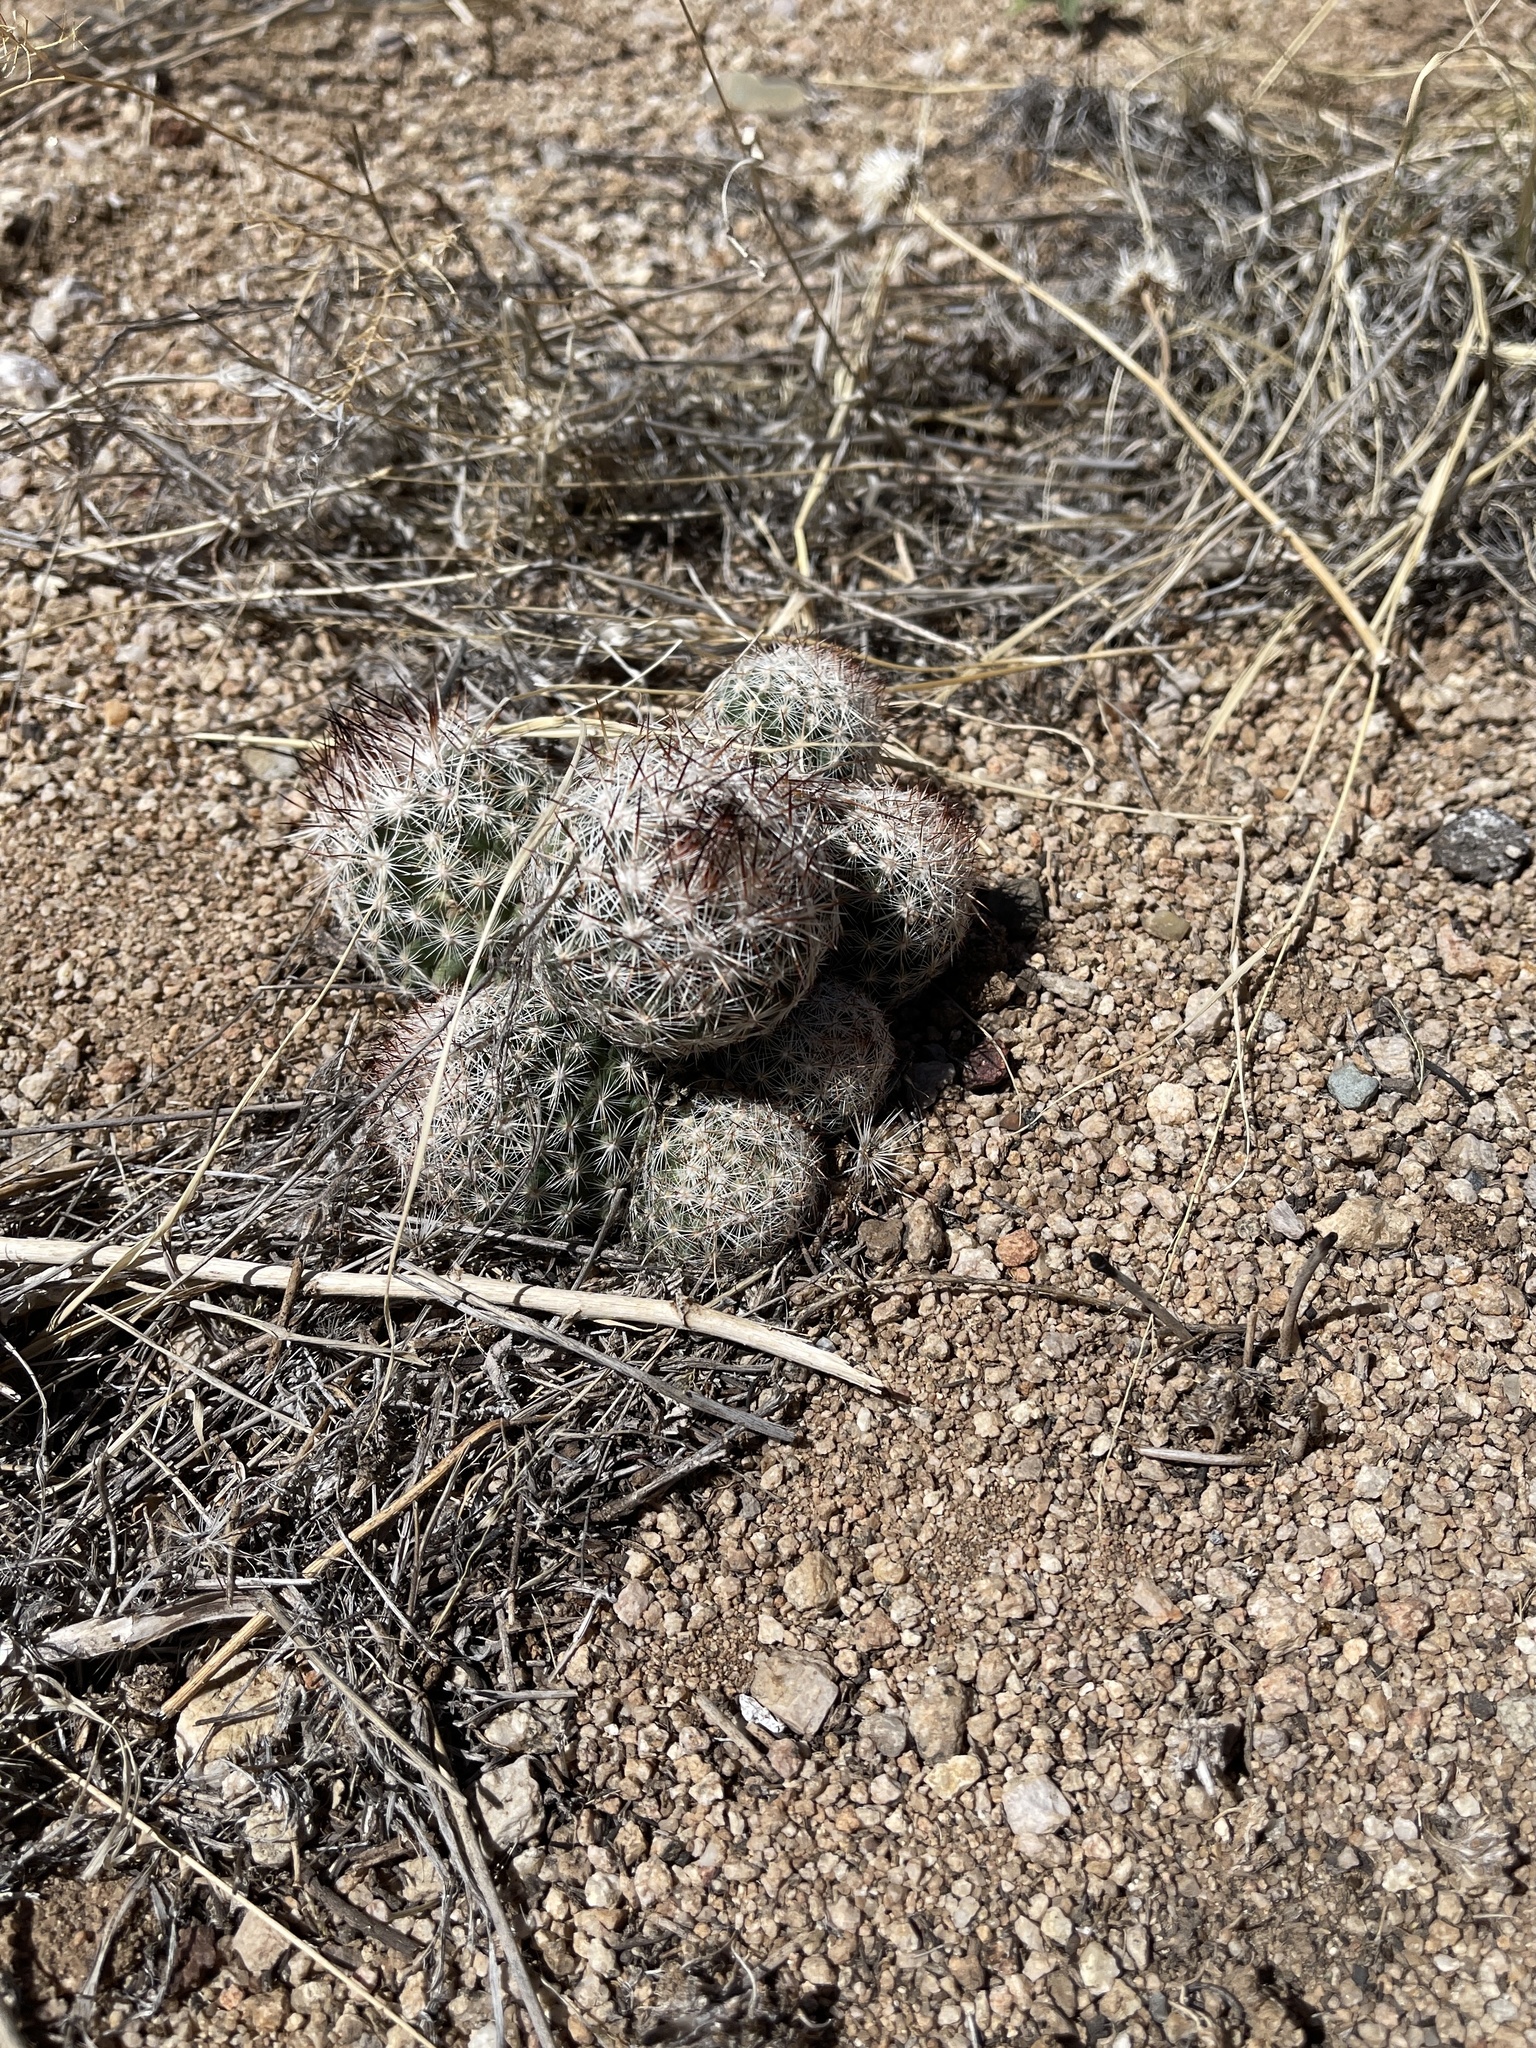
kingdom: Plantae
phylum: Tracheophyta
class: Magnoliopsida
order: Caryophyllales
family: Cactaceae
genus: Pelecyphora
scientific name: Pelecyphora vivipara
